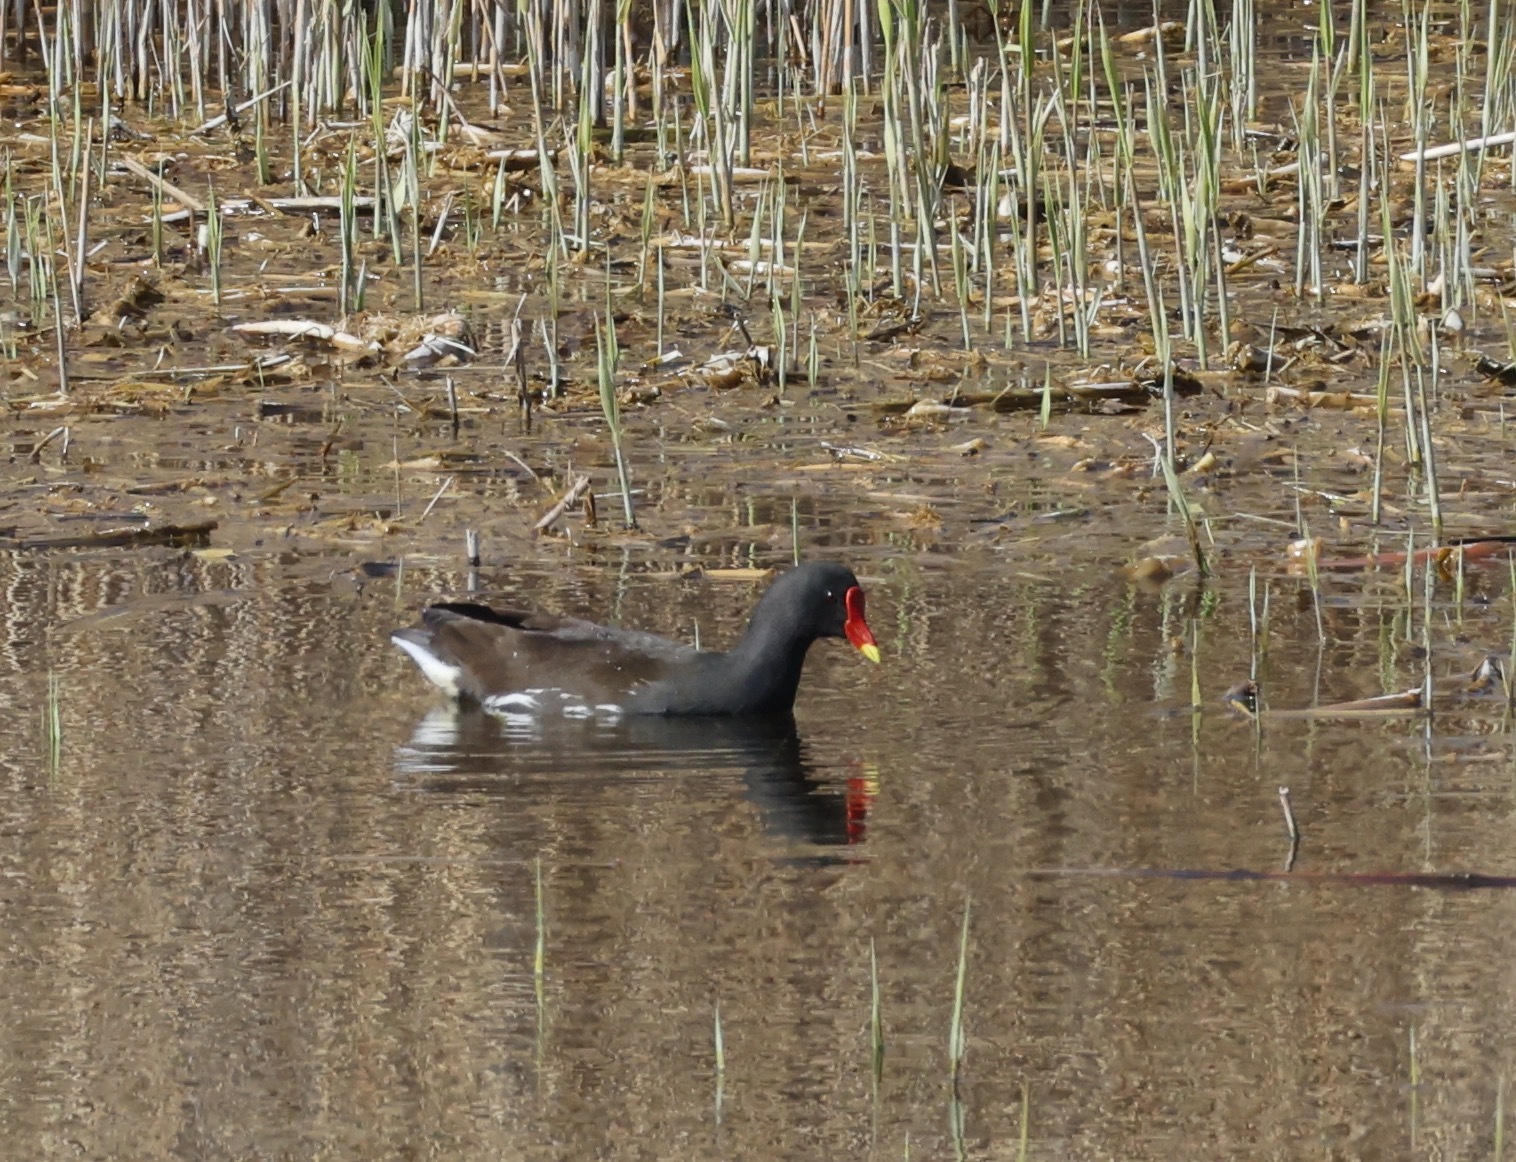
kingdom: Animalia
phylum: Chordata
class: Aves
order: Gruiformes
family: Rallidae
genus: Gallinula
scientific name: Gallinula chloropus
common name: Common moorhen
